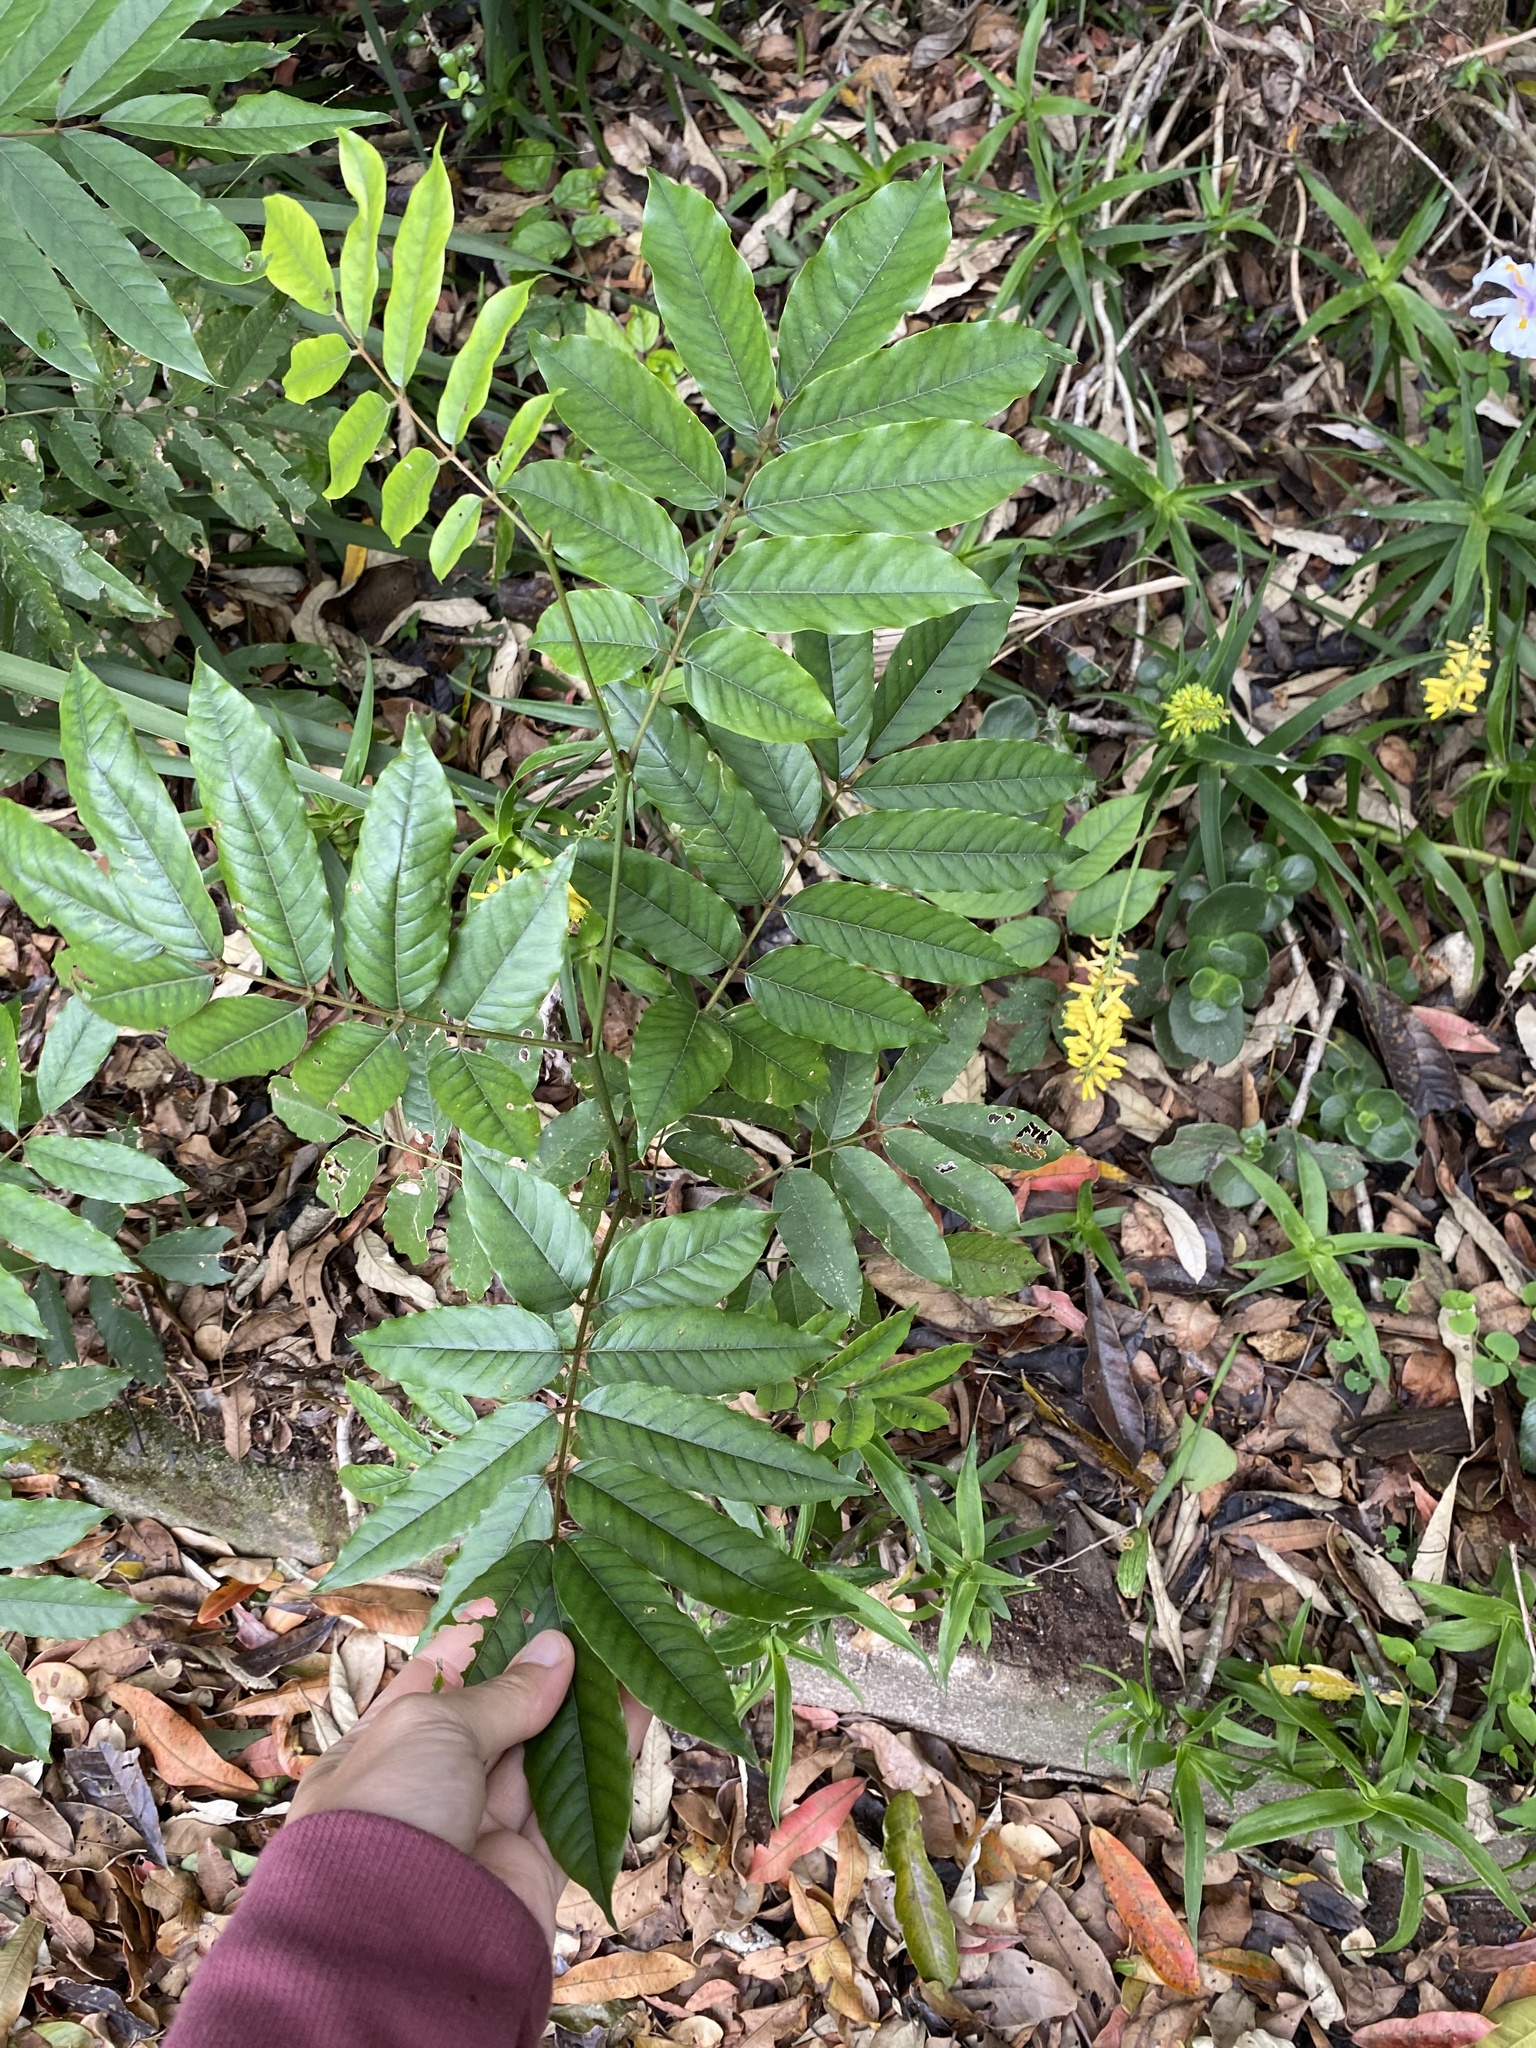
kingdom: Plantae
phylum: Tracheophyta
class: Magnoliopsida
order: Fabales
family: Fabaceae
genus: Millettia
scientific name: Millettia grandis
